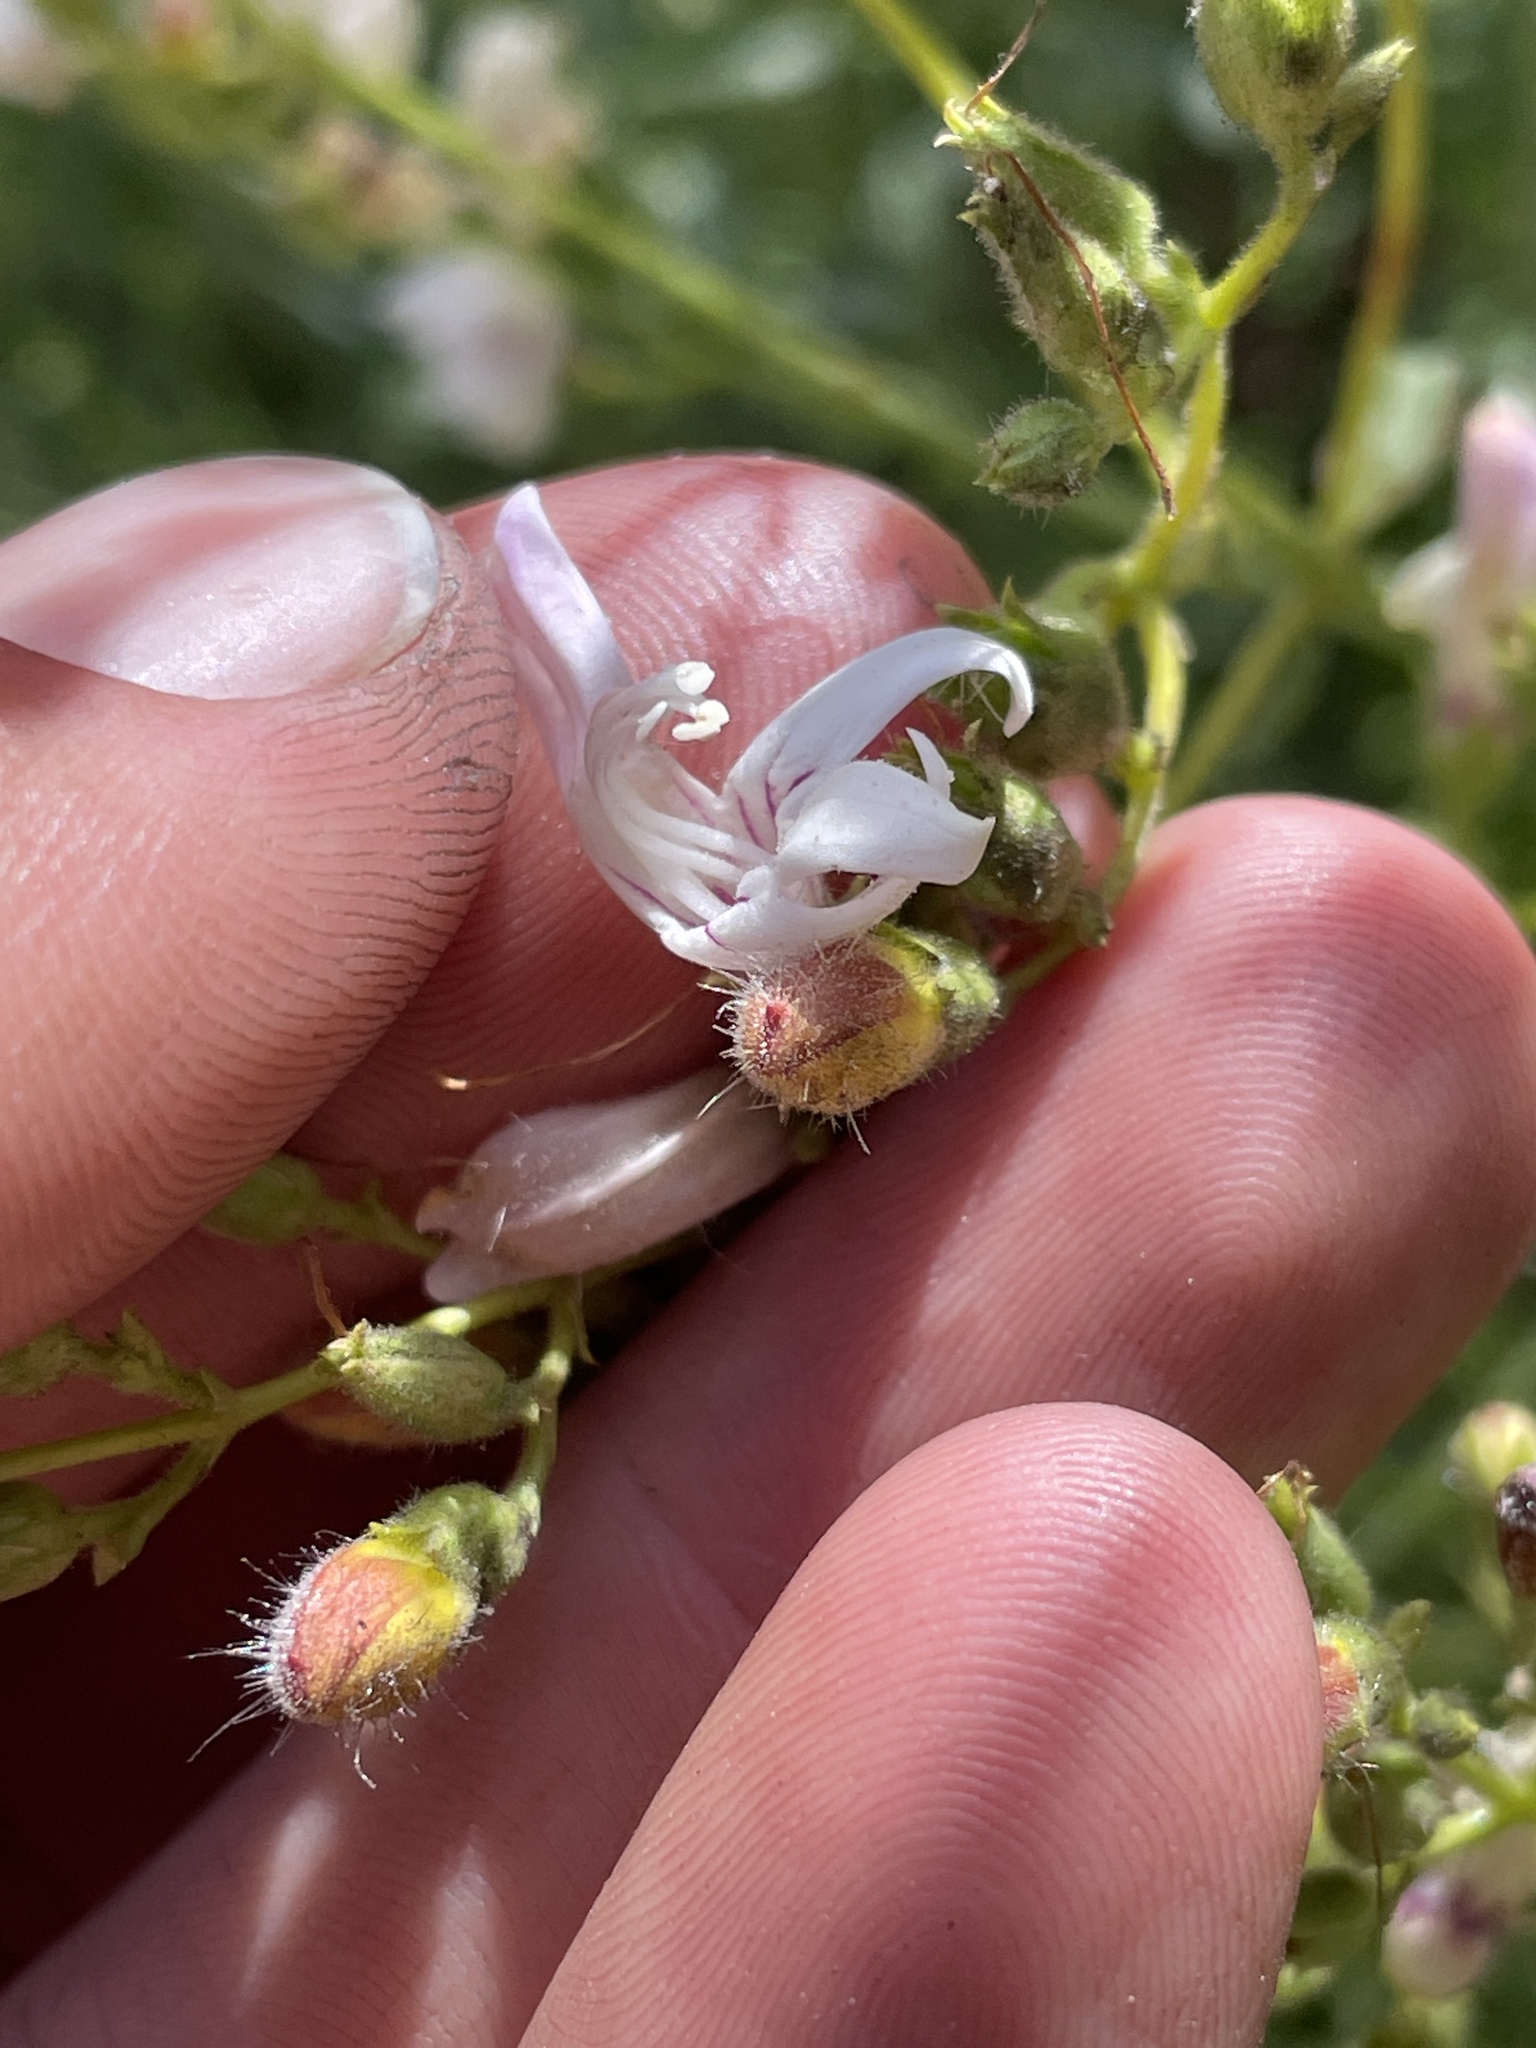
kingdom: Plantae
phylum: Tracheophyta
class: Magnoliopsida
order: Lamiales
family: Plantaginaceae
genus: Keckiella
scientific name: Keckiella breviflora
